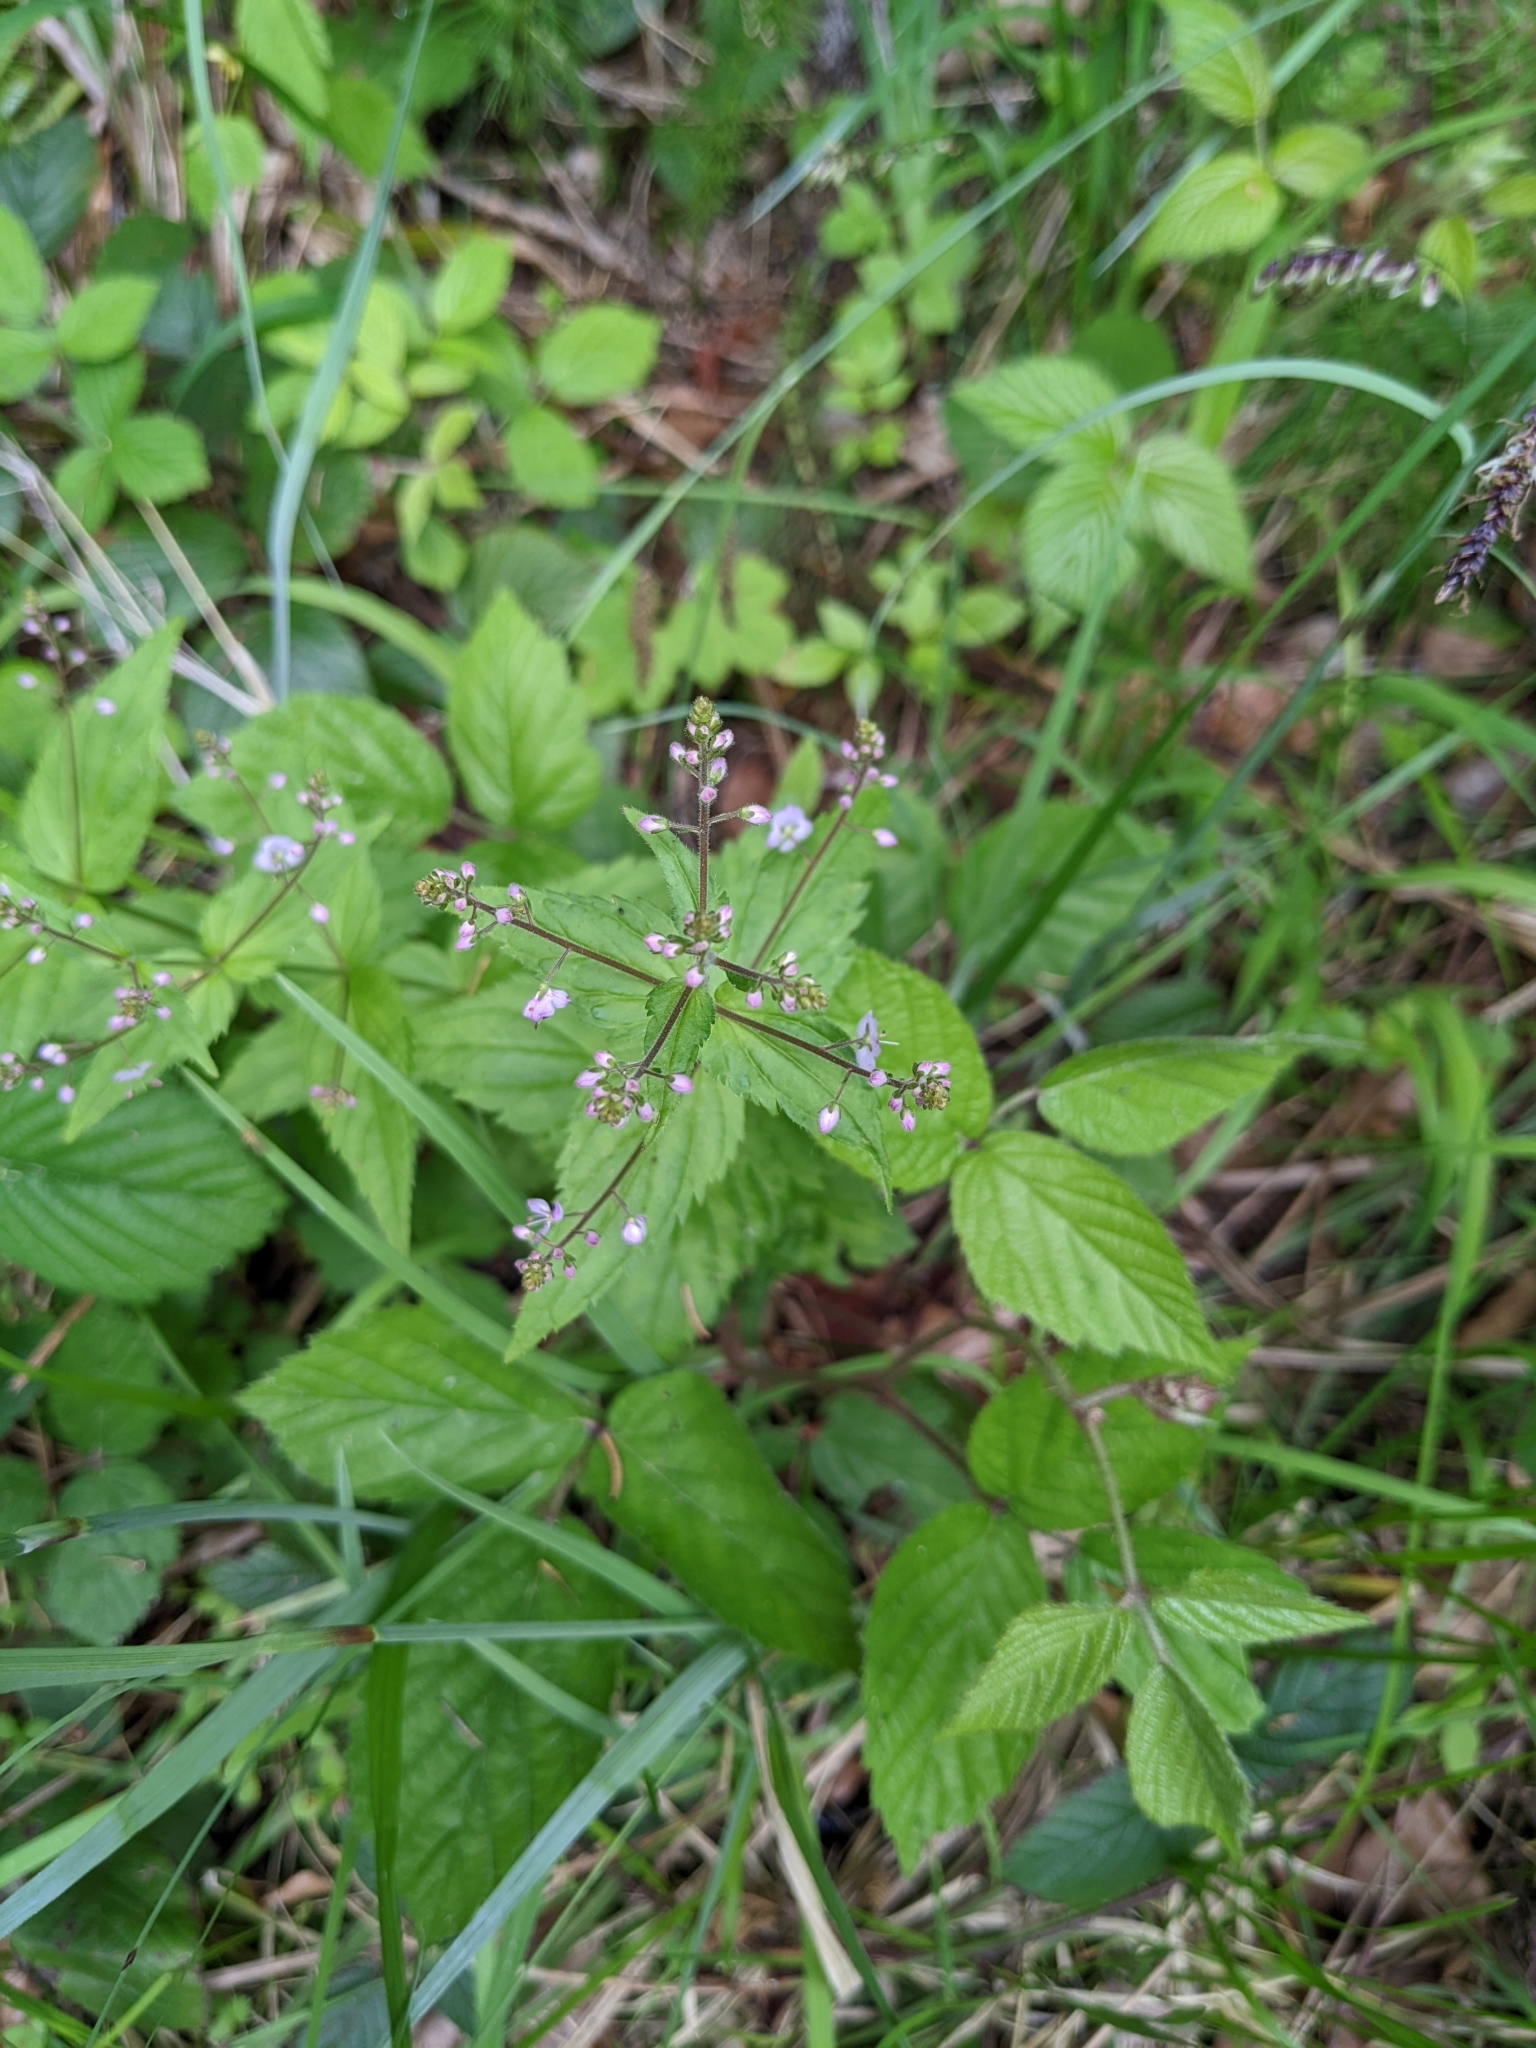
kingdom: Plantae
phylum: Tracheophyta
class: Magnoliopsida
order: Lamiales
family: Plantaginaceae
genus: Veronica
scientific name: Veronica urticifolia
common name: Nettle-leaf speedwell
